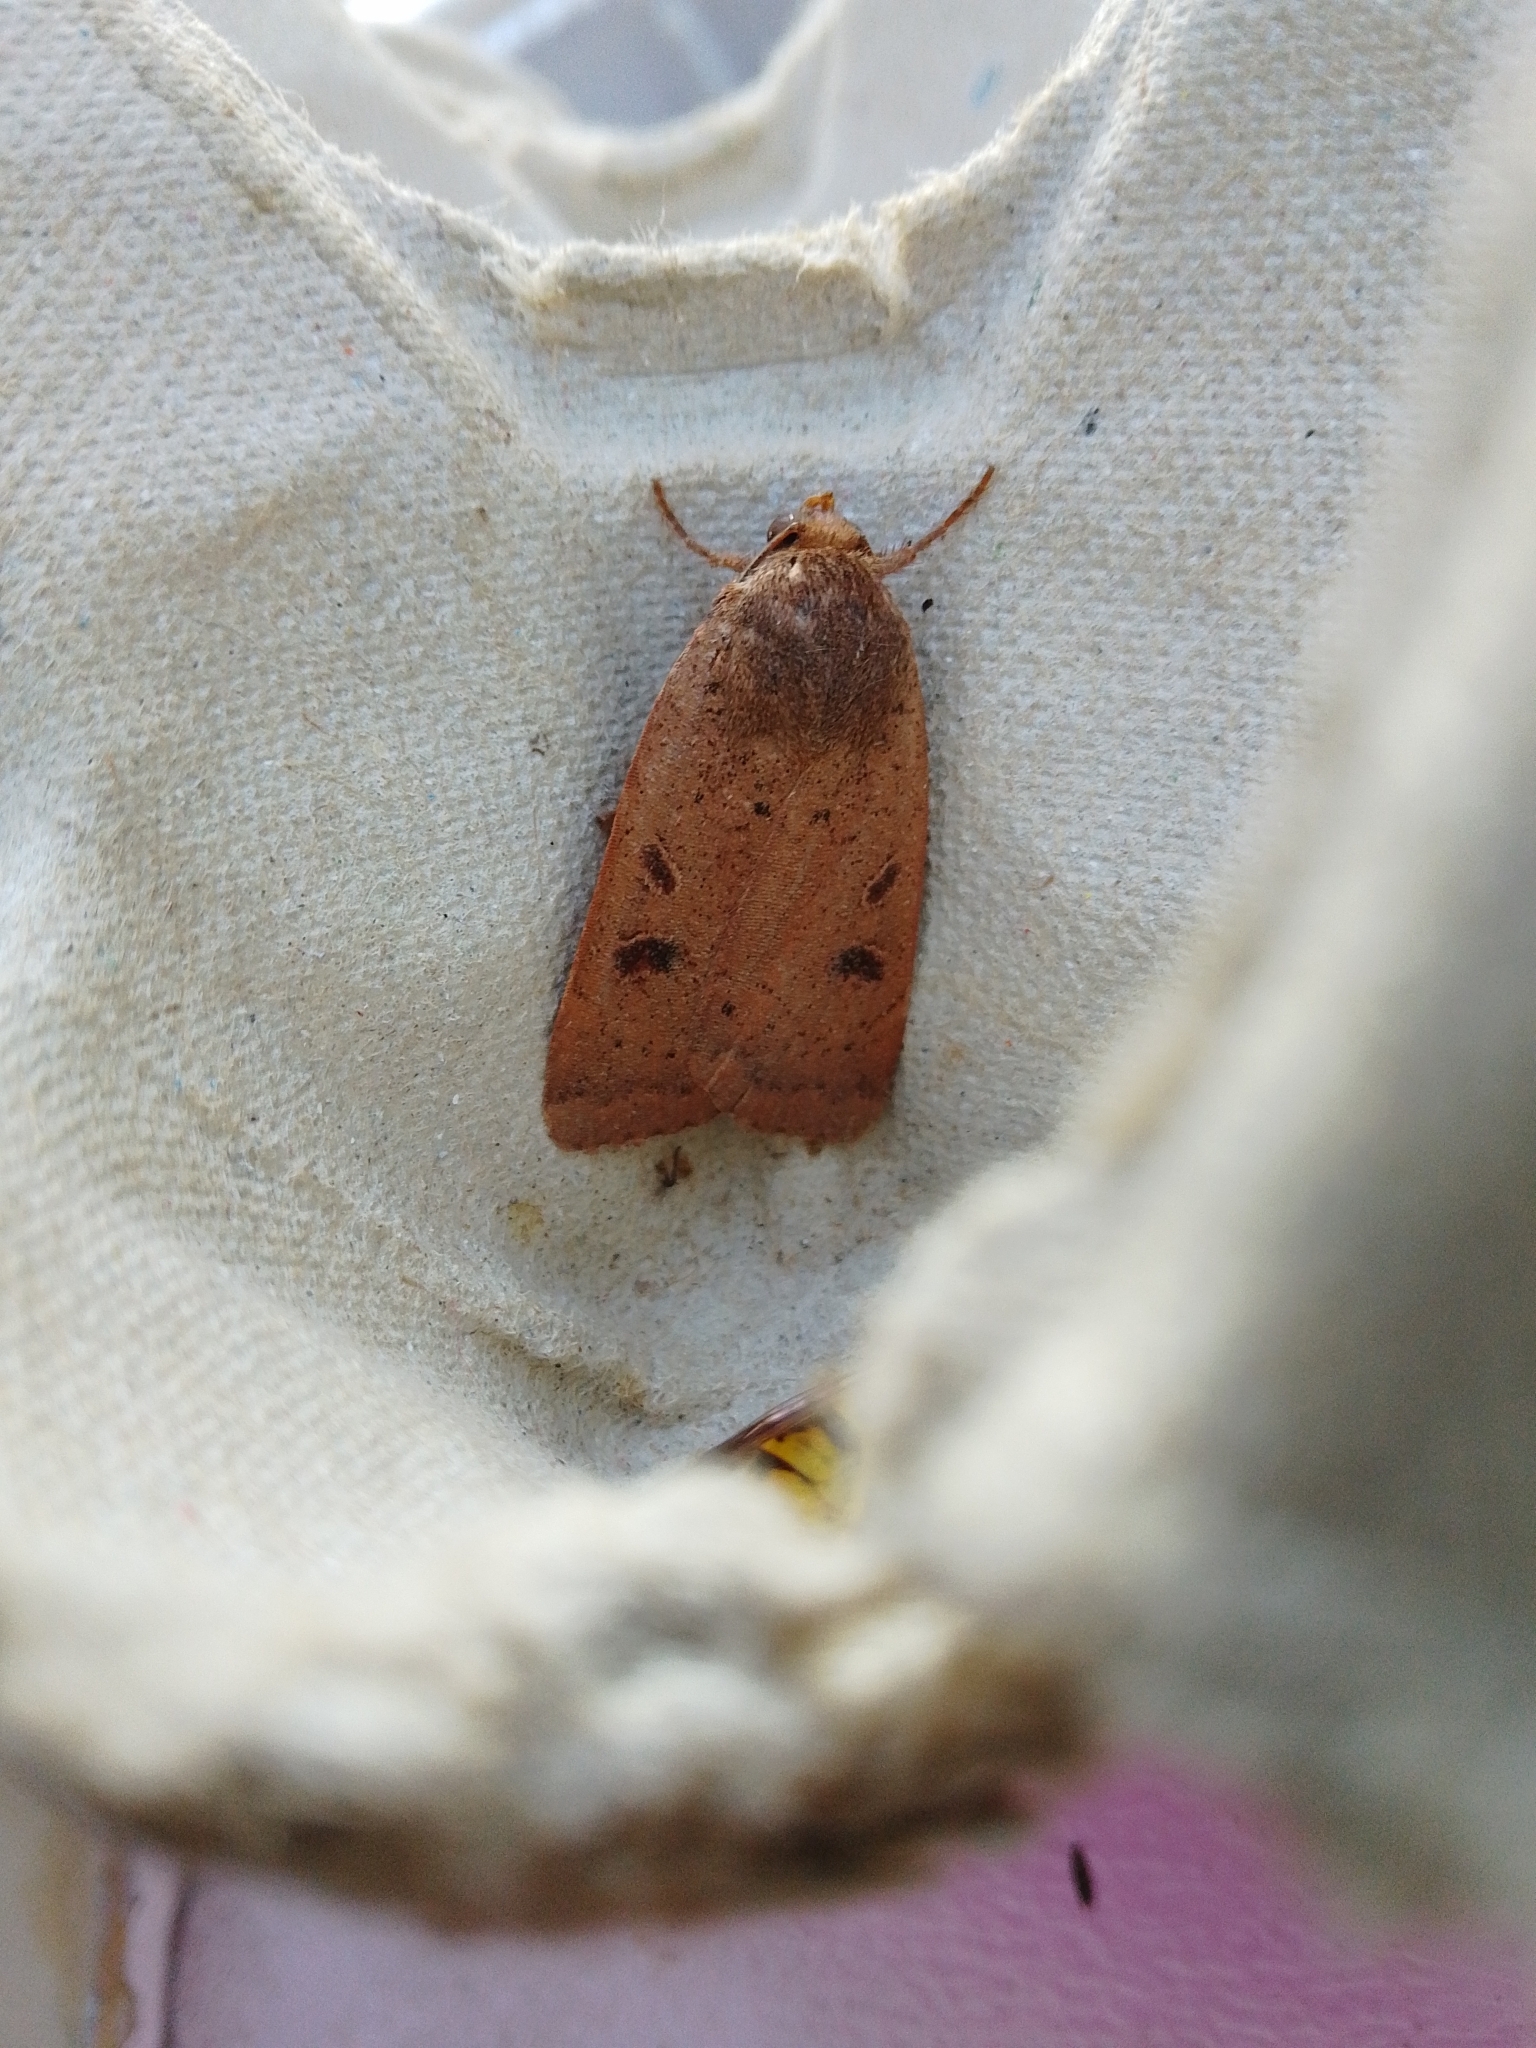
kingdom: Animalia
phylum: Arthropoda
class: Insecta
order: Lepidoptera
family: Noctuidae
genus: Noctua
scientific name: Noctua comes
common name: Lesser yellow underwing
